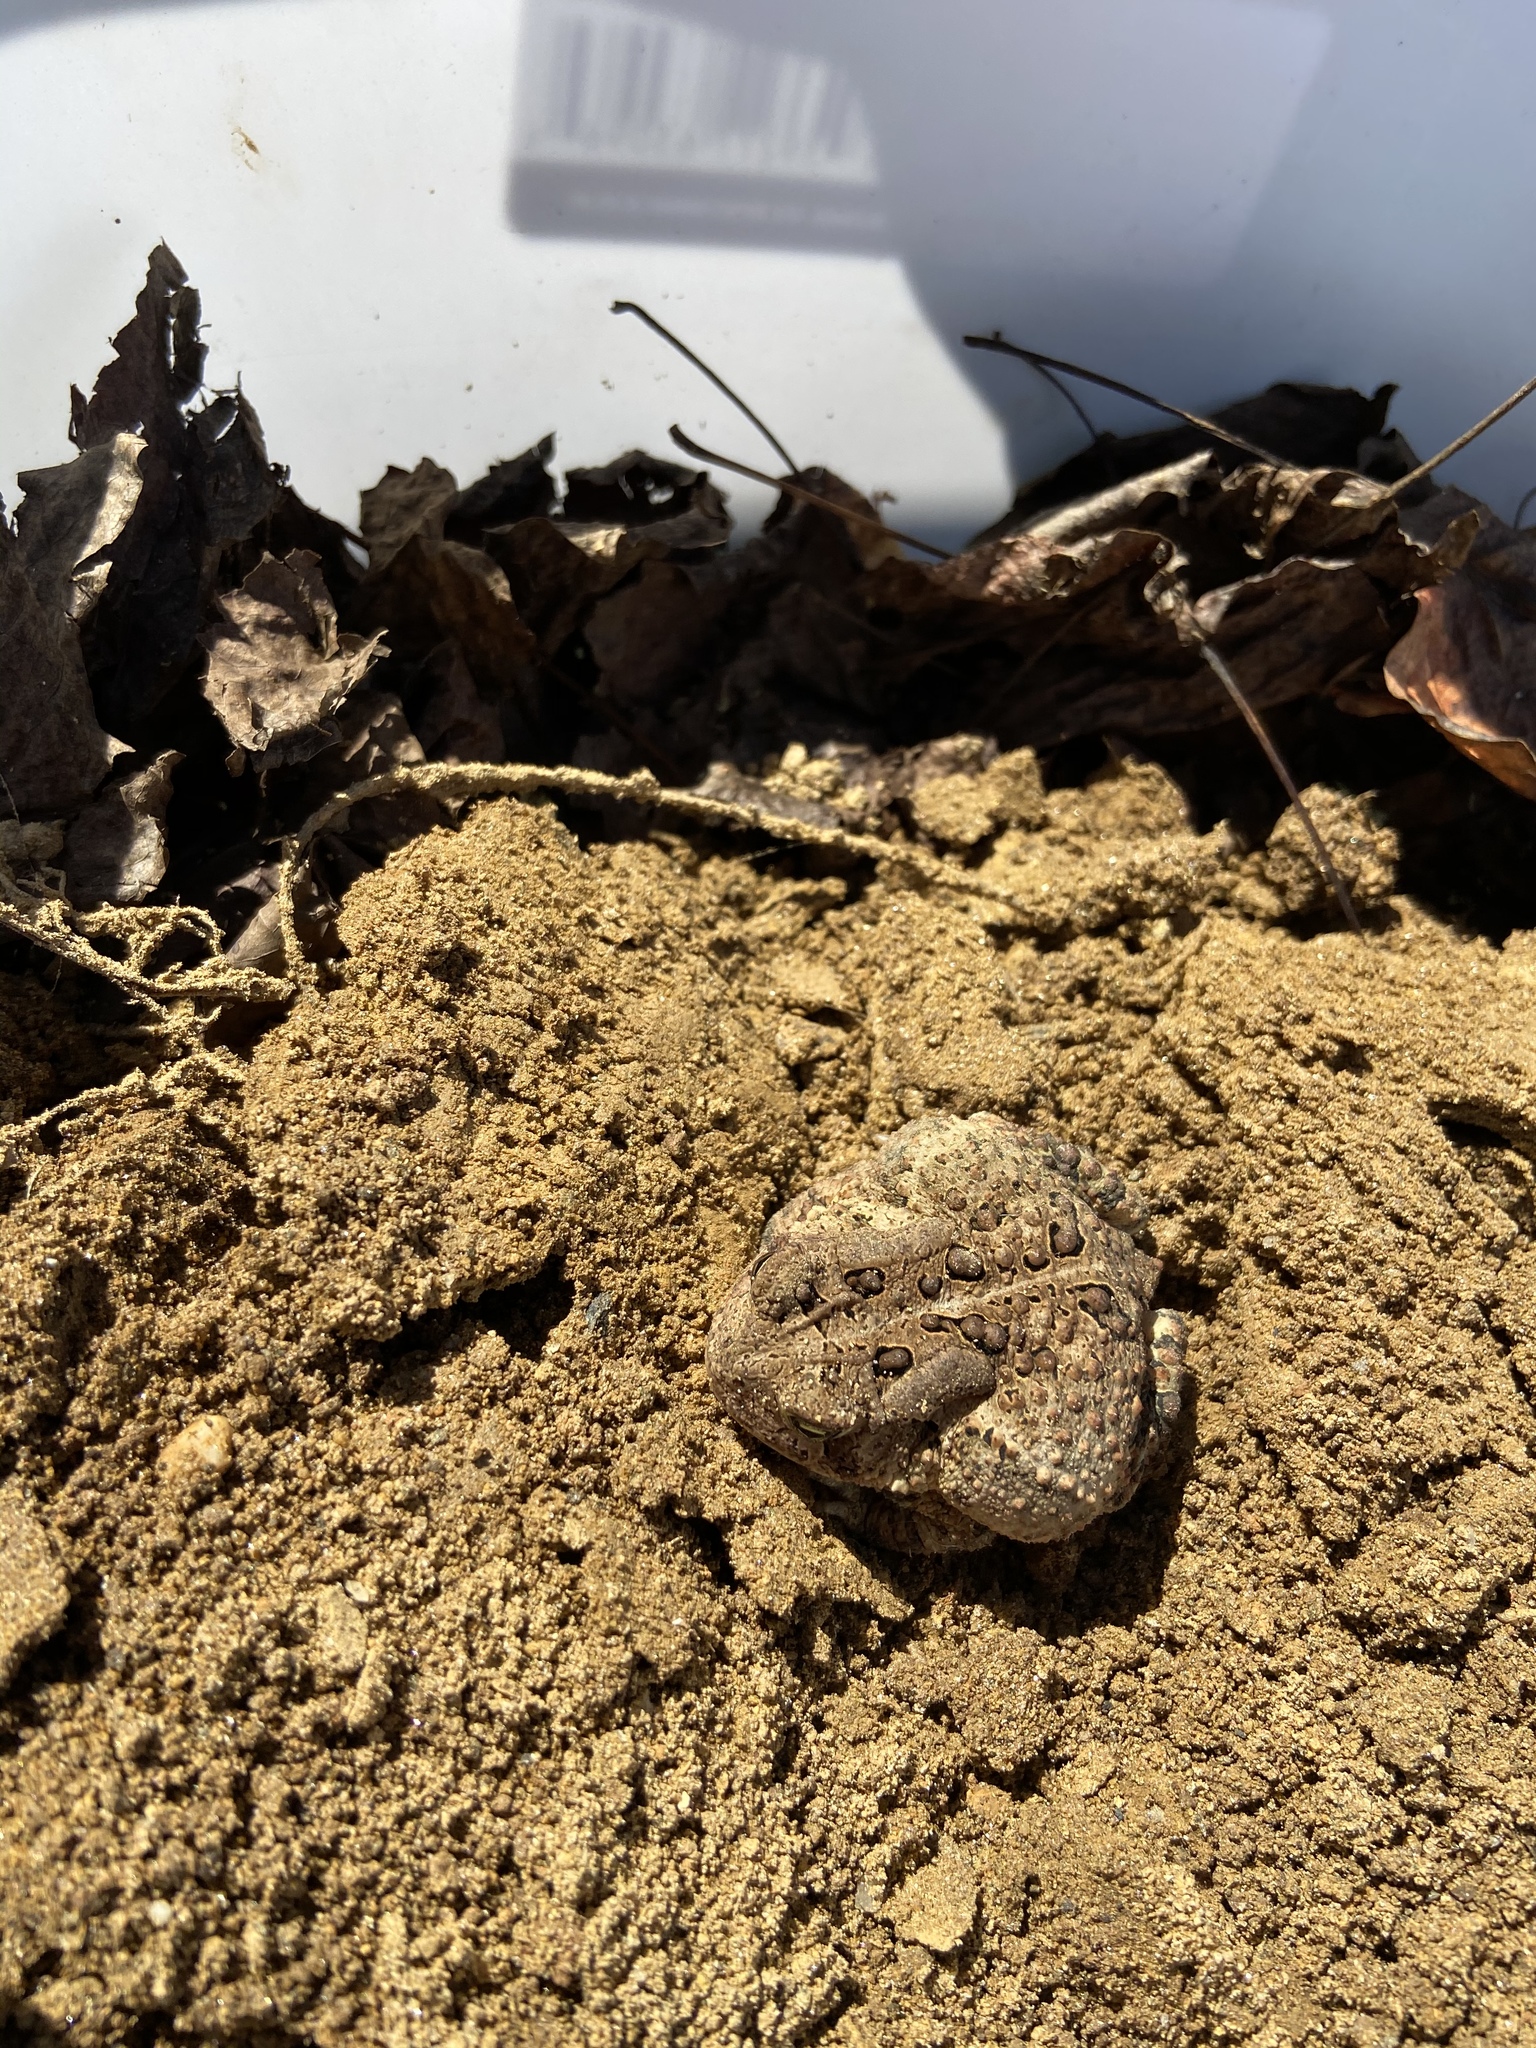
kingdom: Animalia
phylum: Chordata
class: Amphibia
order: Anura
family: Bufonidae
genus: Anaxyrus
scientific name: Anaxyrus americanus
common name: American toad
